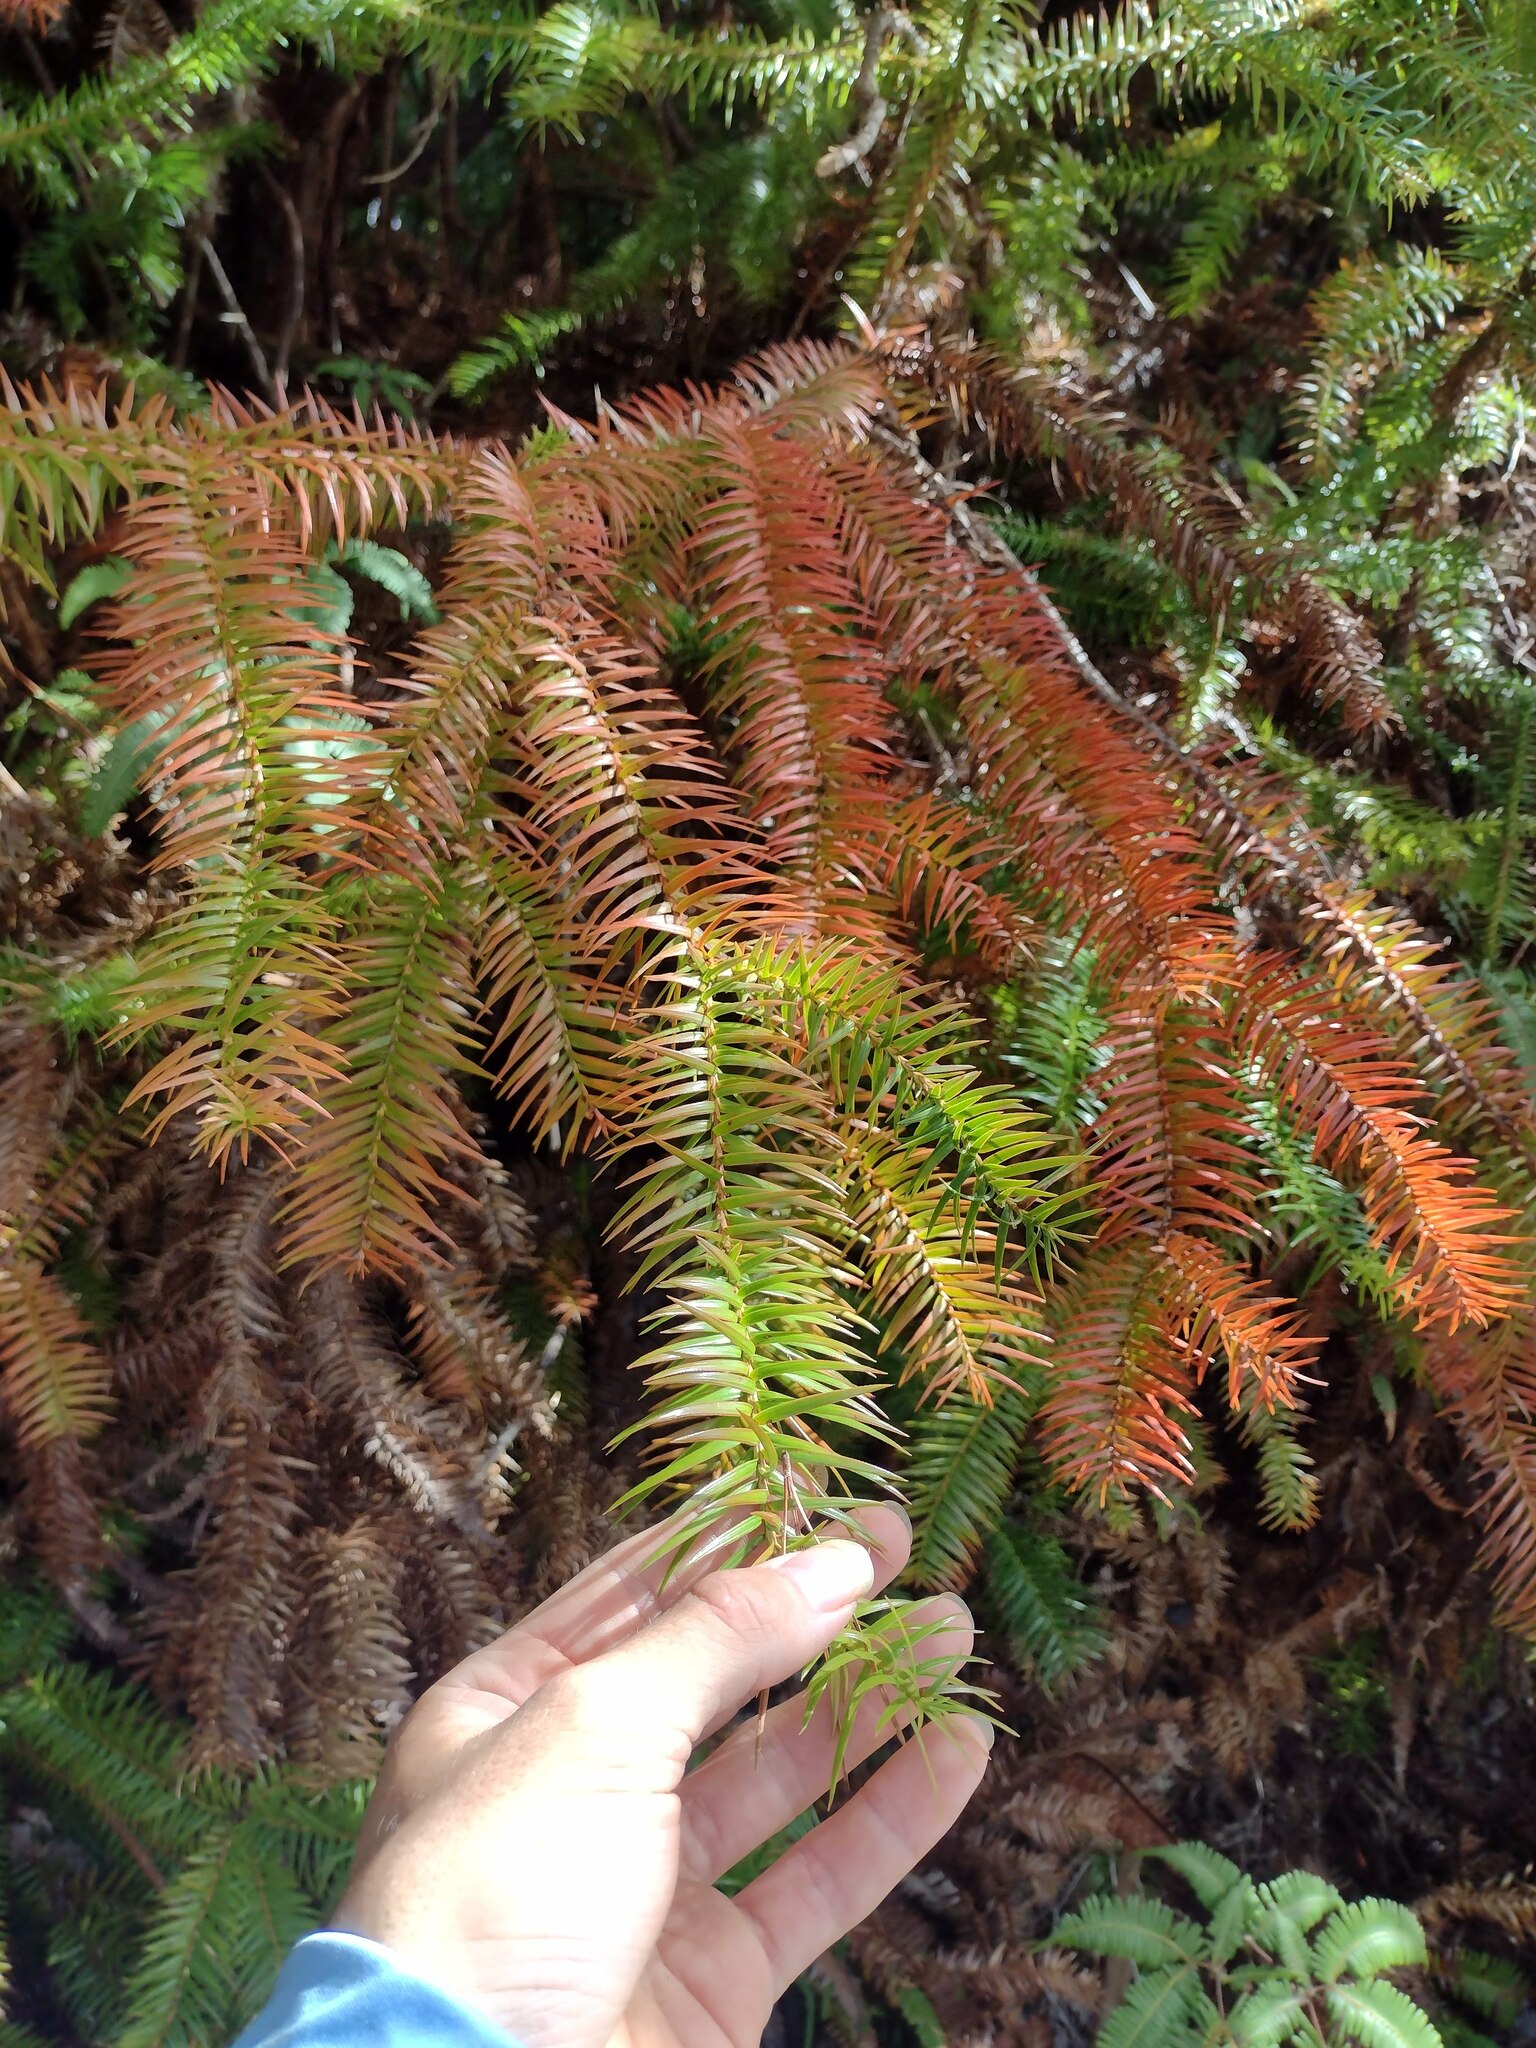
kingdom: Plantae
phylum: Tracheophyta
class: Pinopsida
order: Pinales
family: Cupressaceae
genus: Cunninghamia
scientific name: Cunninghamia lanceolata
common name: Chinese fir
